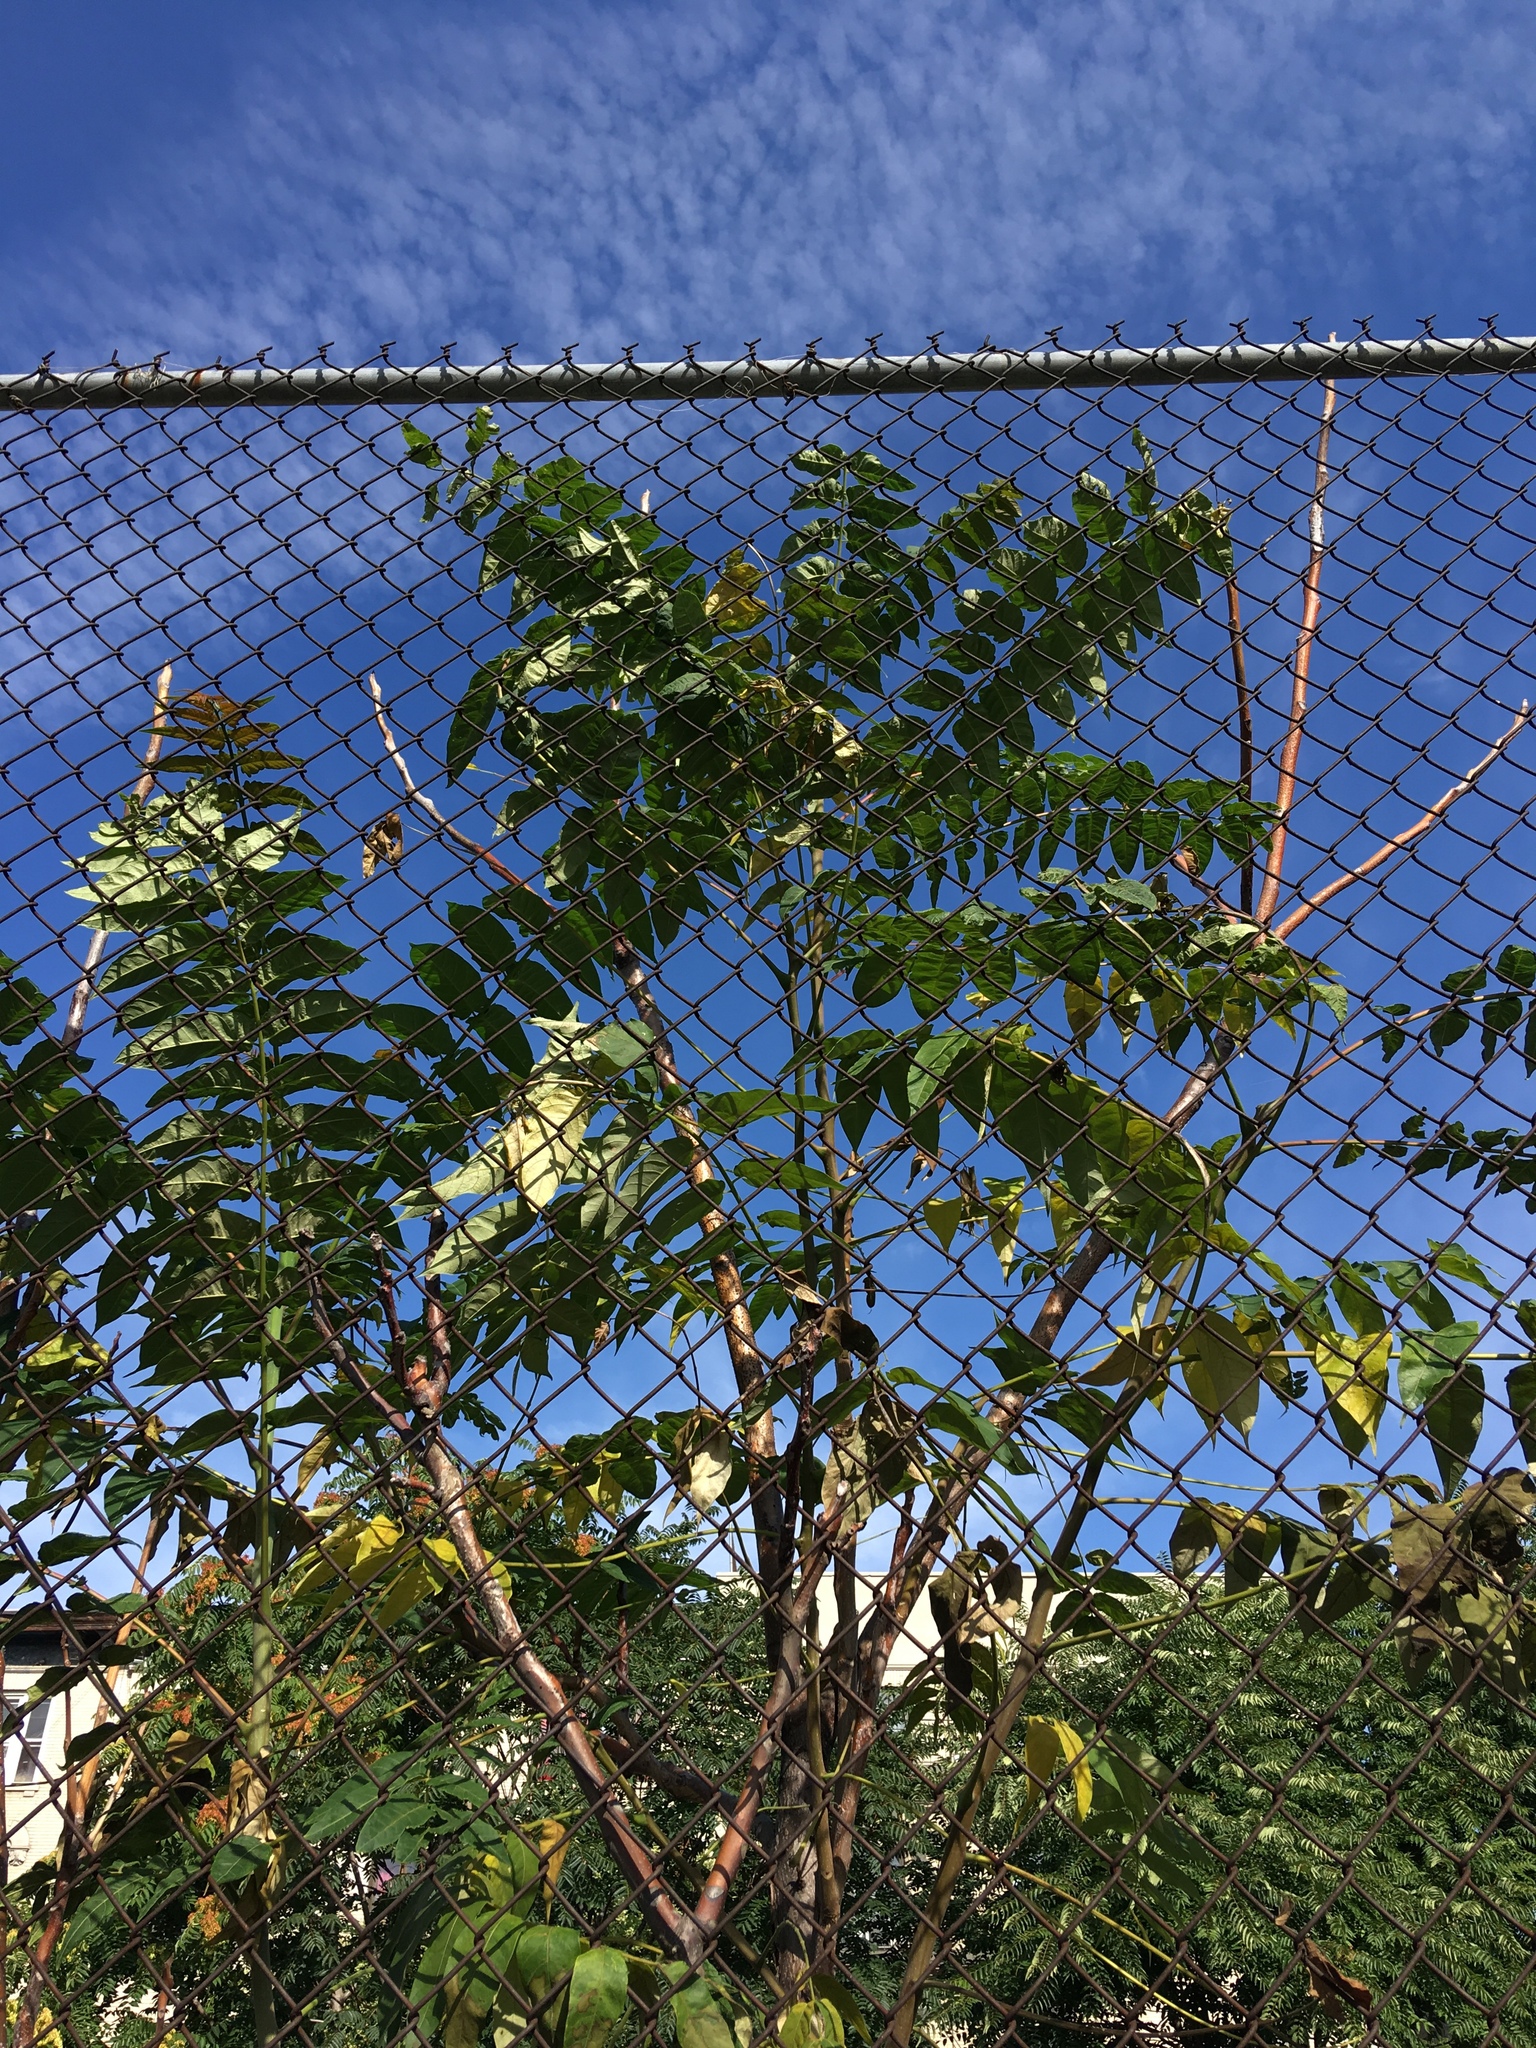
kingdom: Plantae
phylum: Tracheophyta
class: Magnoliopsida
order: Sapindales
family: Simaroubaceae
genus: Ailanthus
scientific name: Ailanthus altissima
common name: Tree-of-heaven
